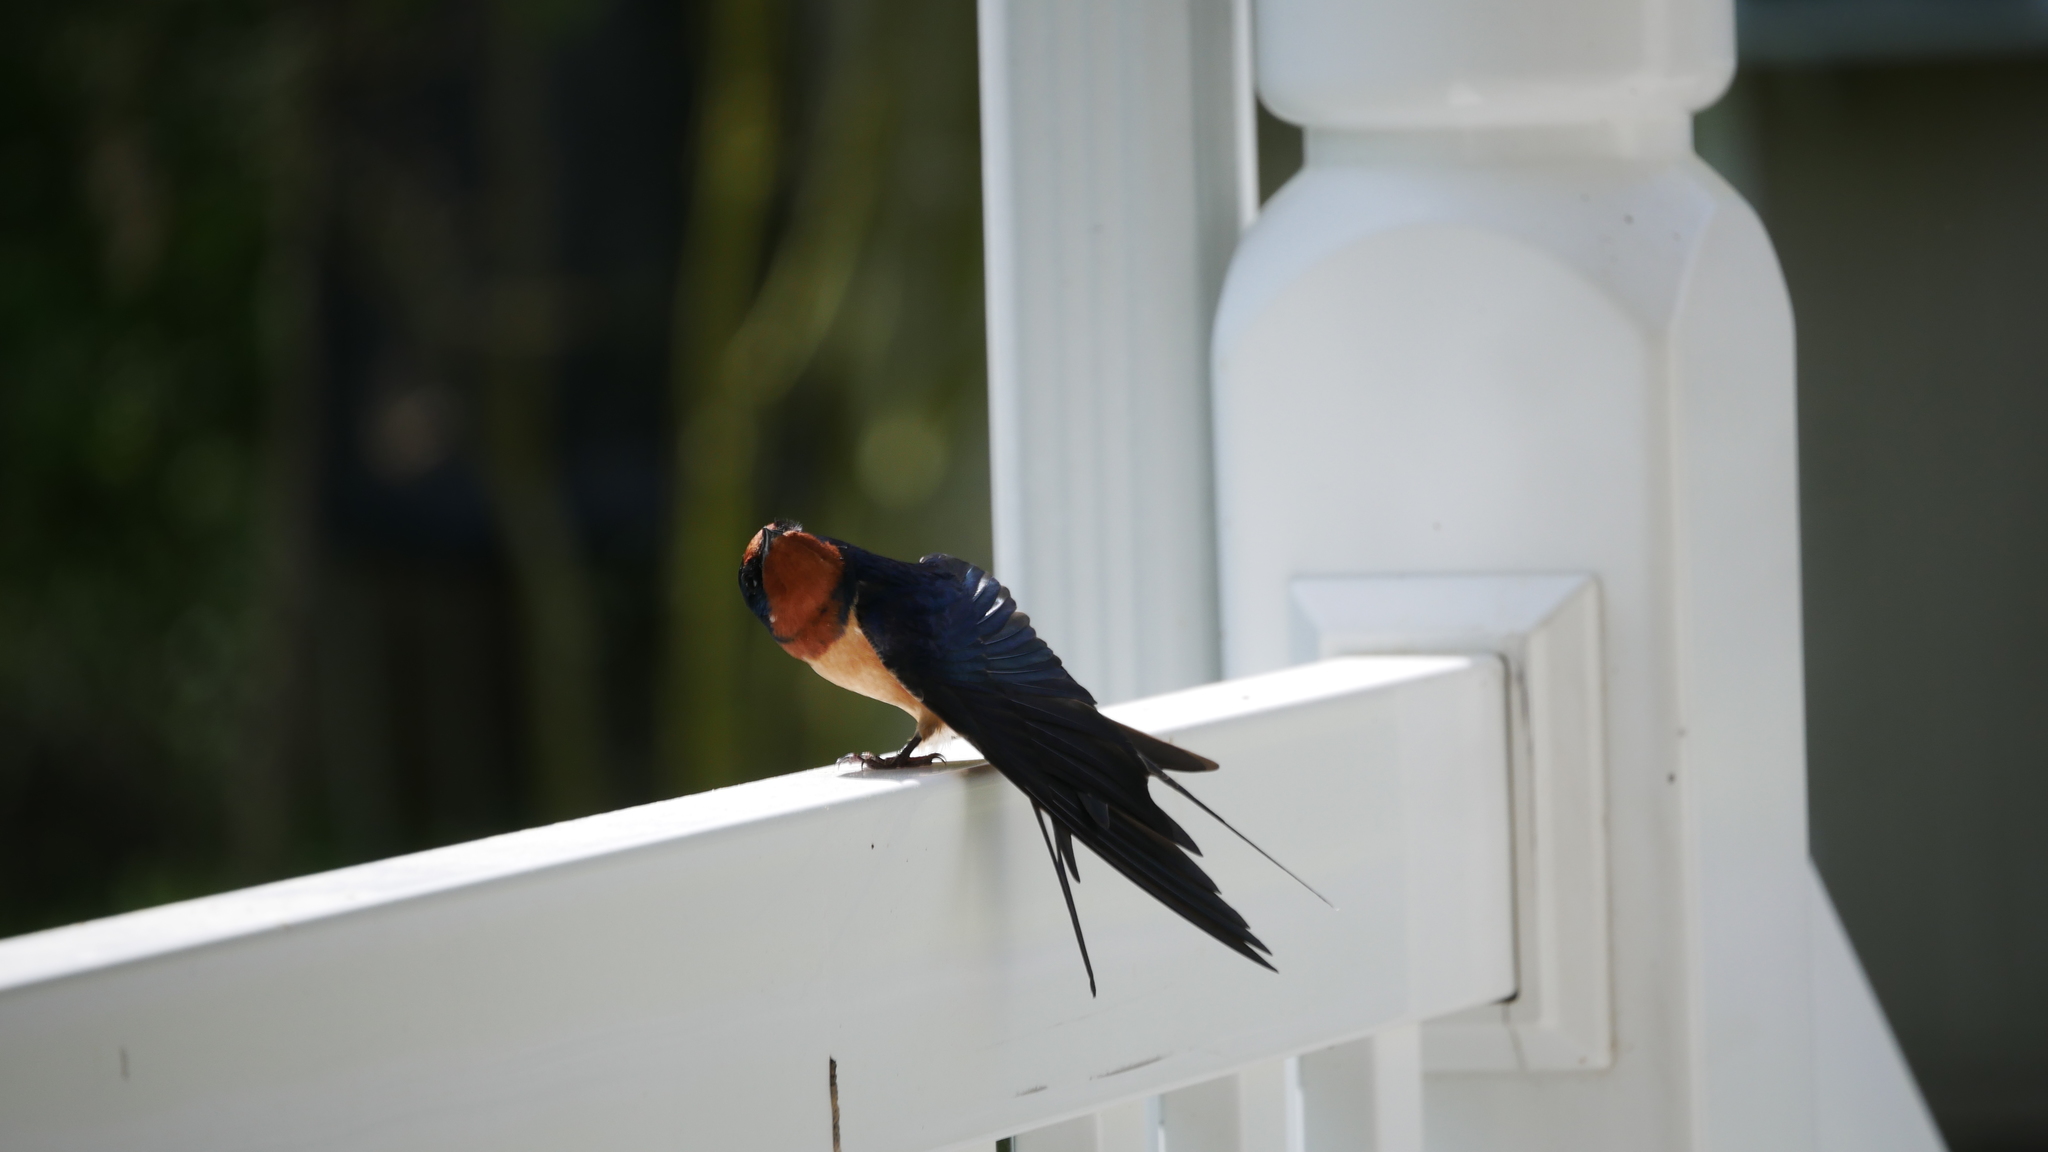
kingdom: Animalia
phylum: Chordata
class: Aves
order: Passeriformes
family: Hirundinidae
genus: Hirundo
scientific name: Hirundo rustica
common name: Barn swallow
